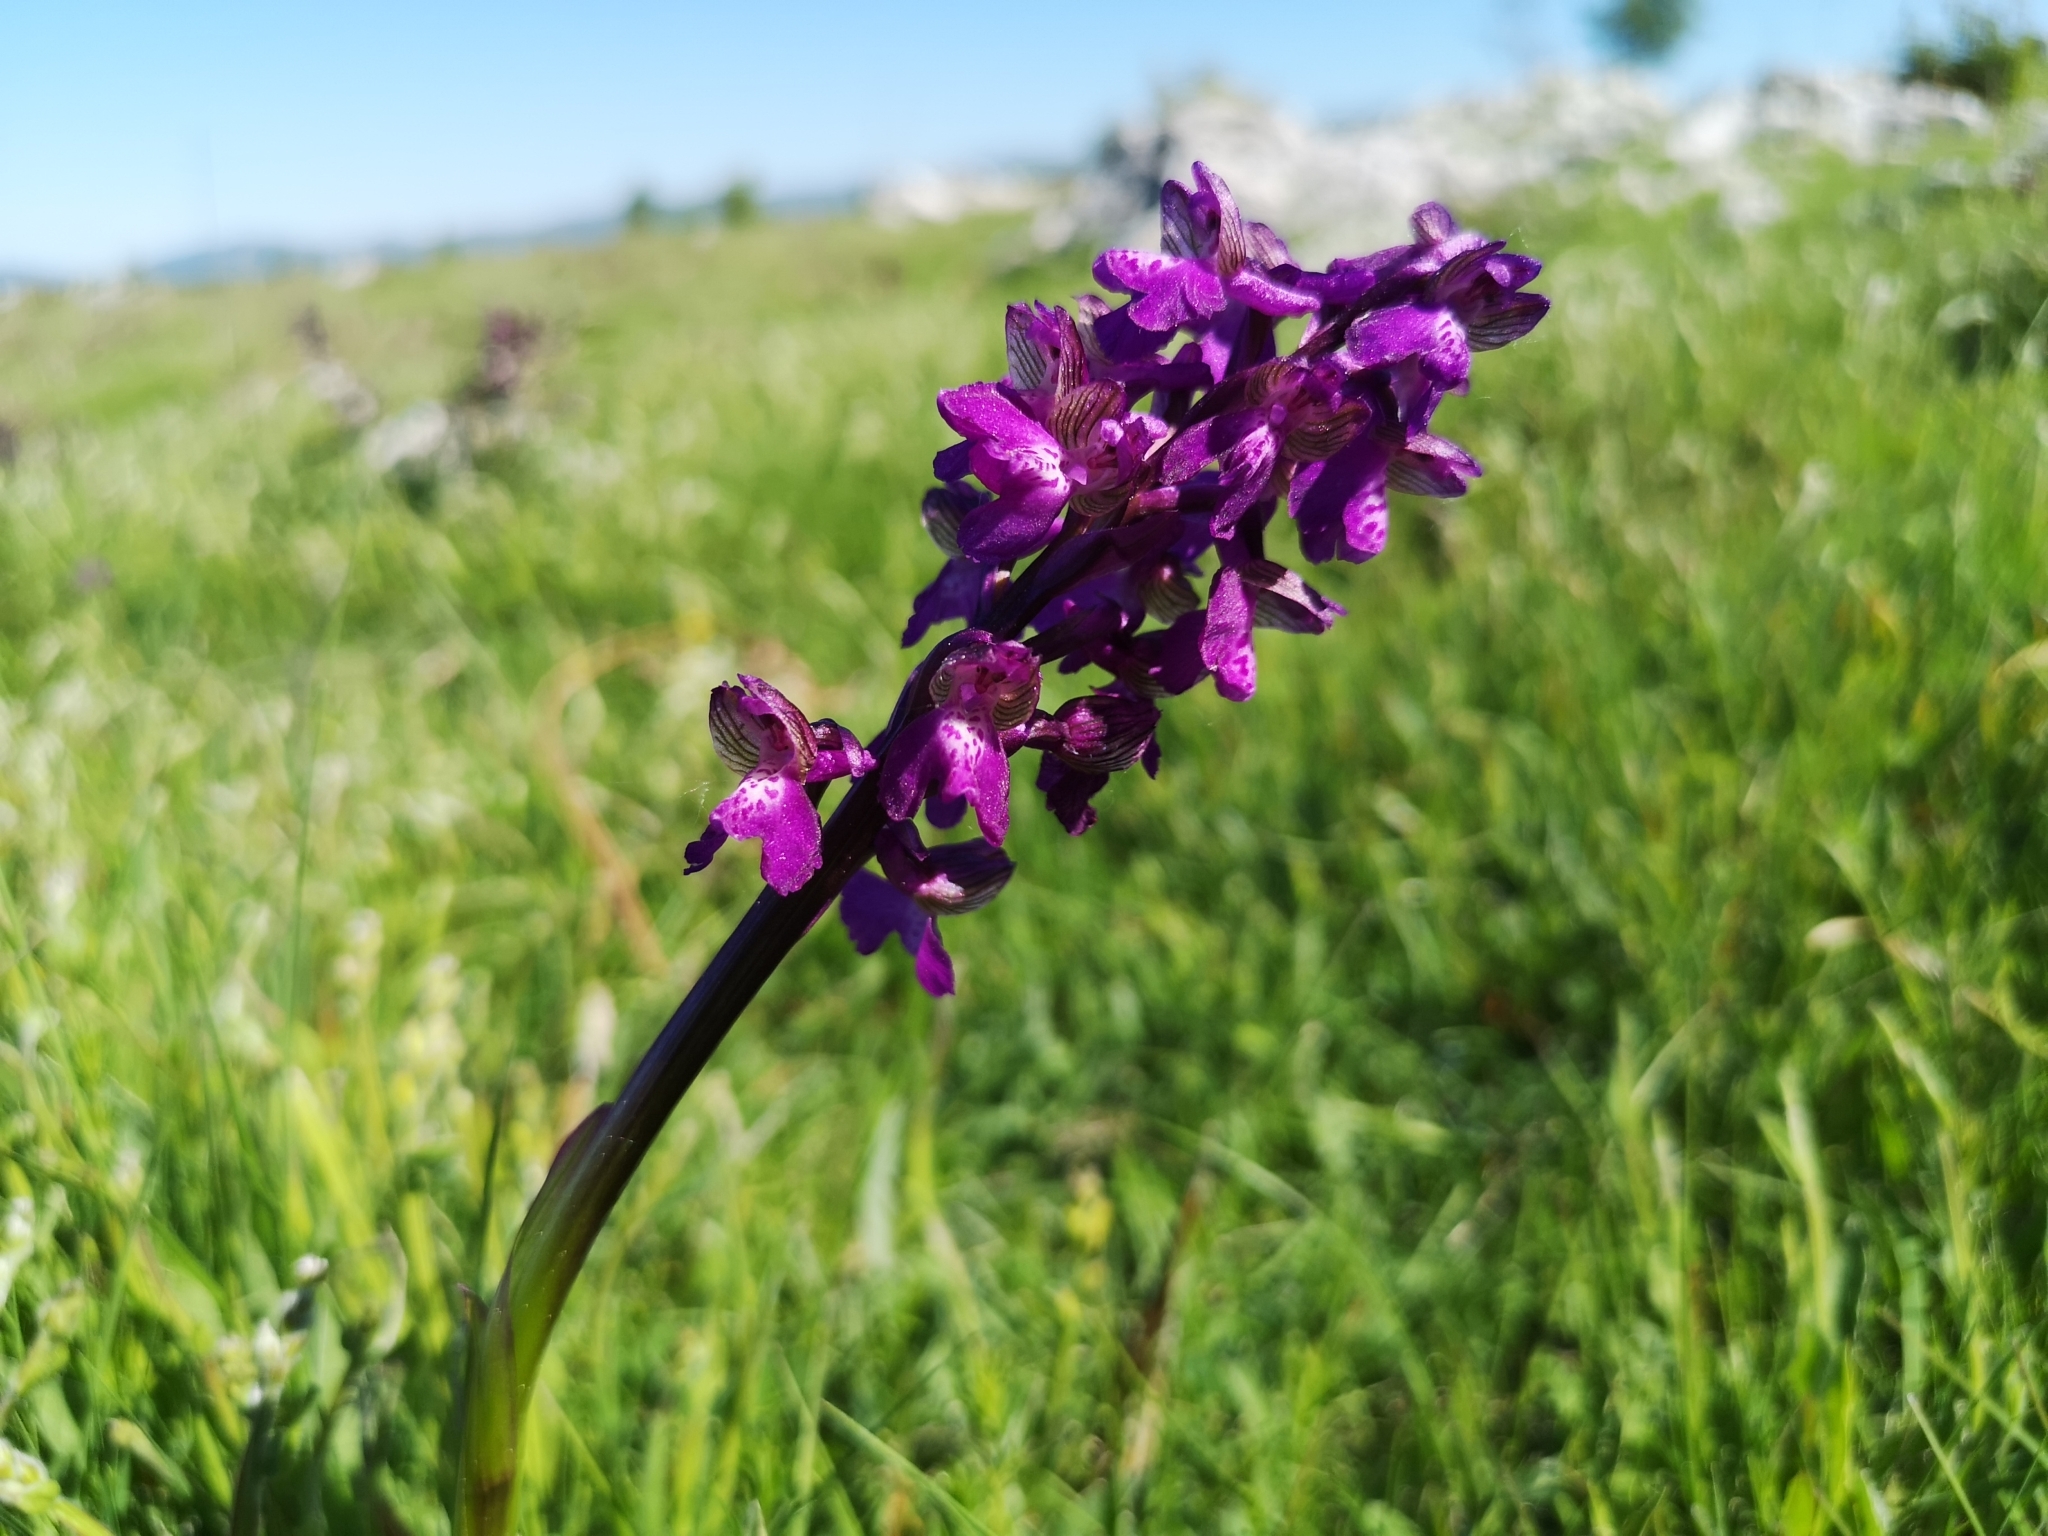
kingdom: Plantae
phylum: Tracheophyta
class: Liliopsida
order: Asparagales
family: Orchidaceae
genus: Anacamptis
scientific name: Anacamptis morio
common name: Green-winged orchid
